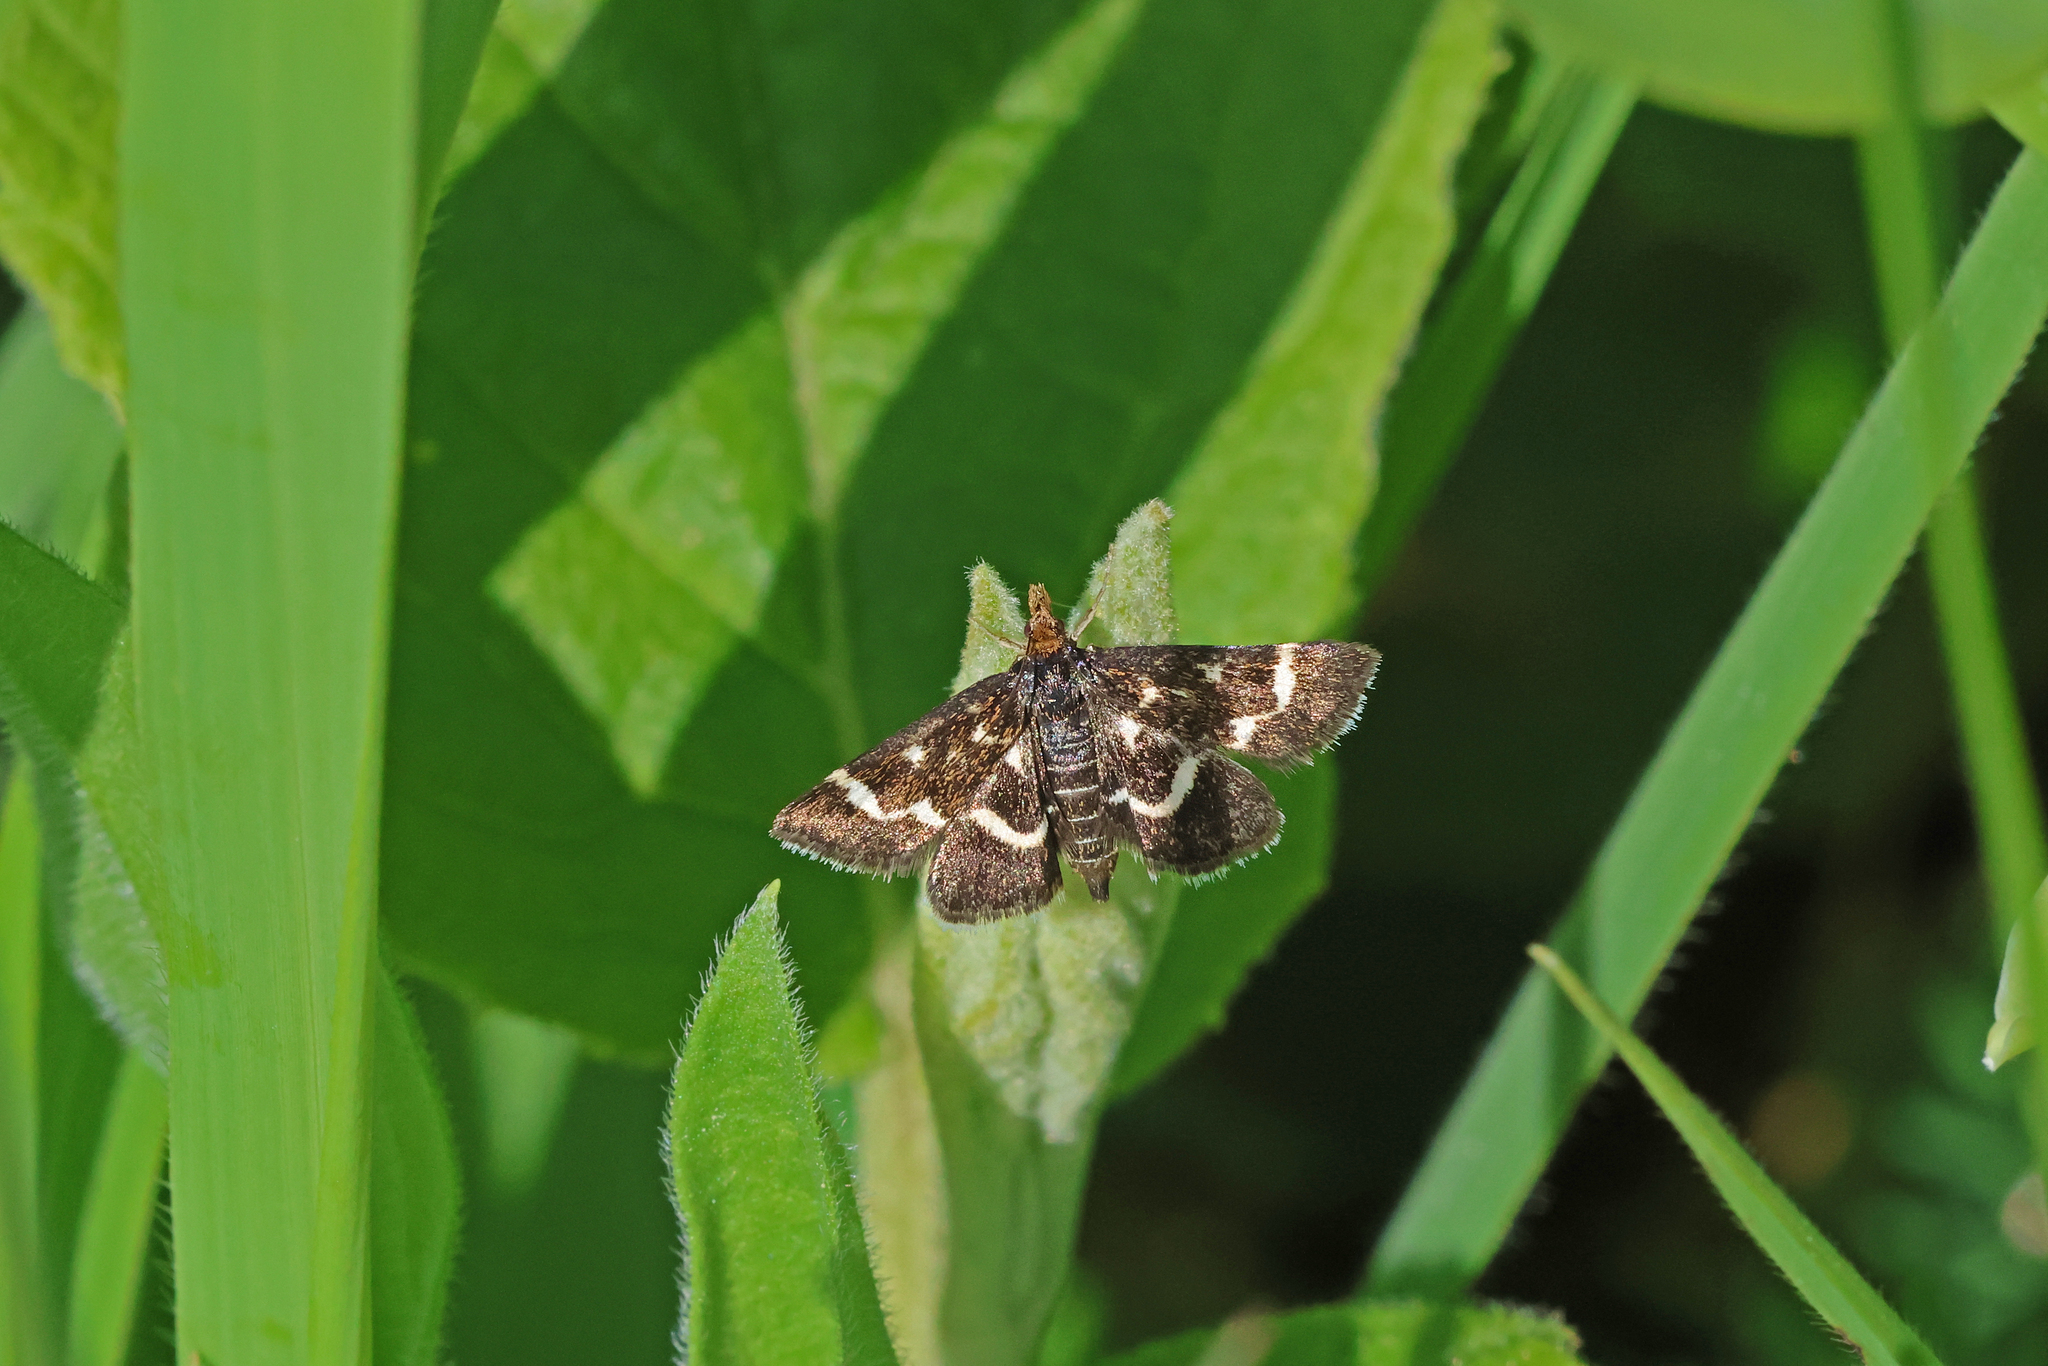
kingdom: Animalia
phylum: Arthropoda
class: Insecta
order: Lepidoptera
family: Crambidae
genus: Pyrausta
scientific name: Pyrausta nigrata
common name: Wavy-barred sable
